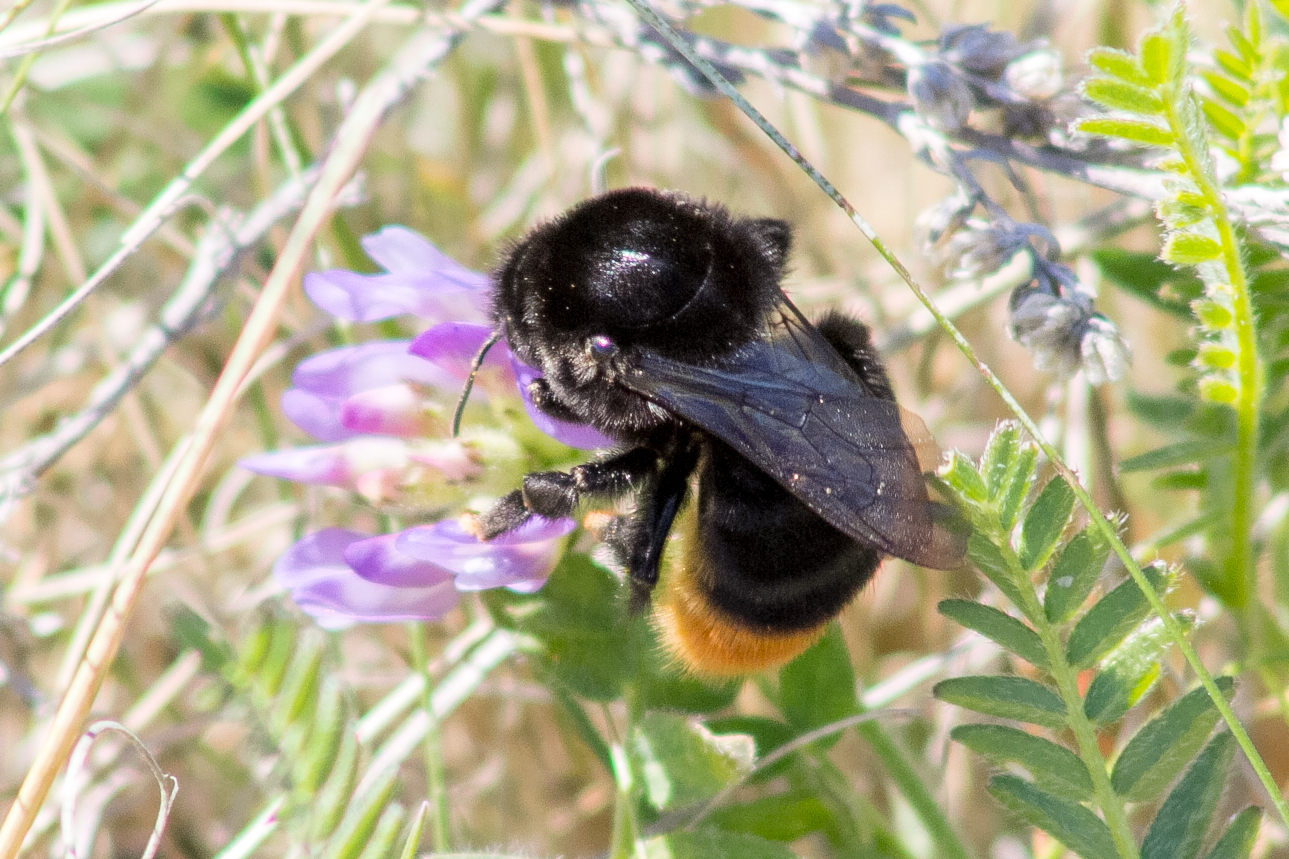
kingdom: Animalia
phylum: Arthropoda
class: Insecta
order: Hymenoptera
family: Apidae
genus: Bombus
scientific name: Bombus confusus
